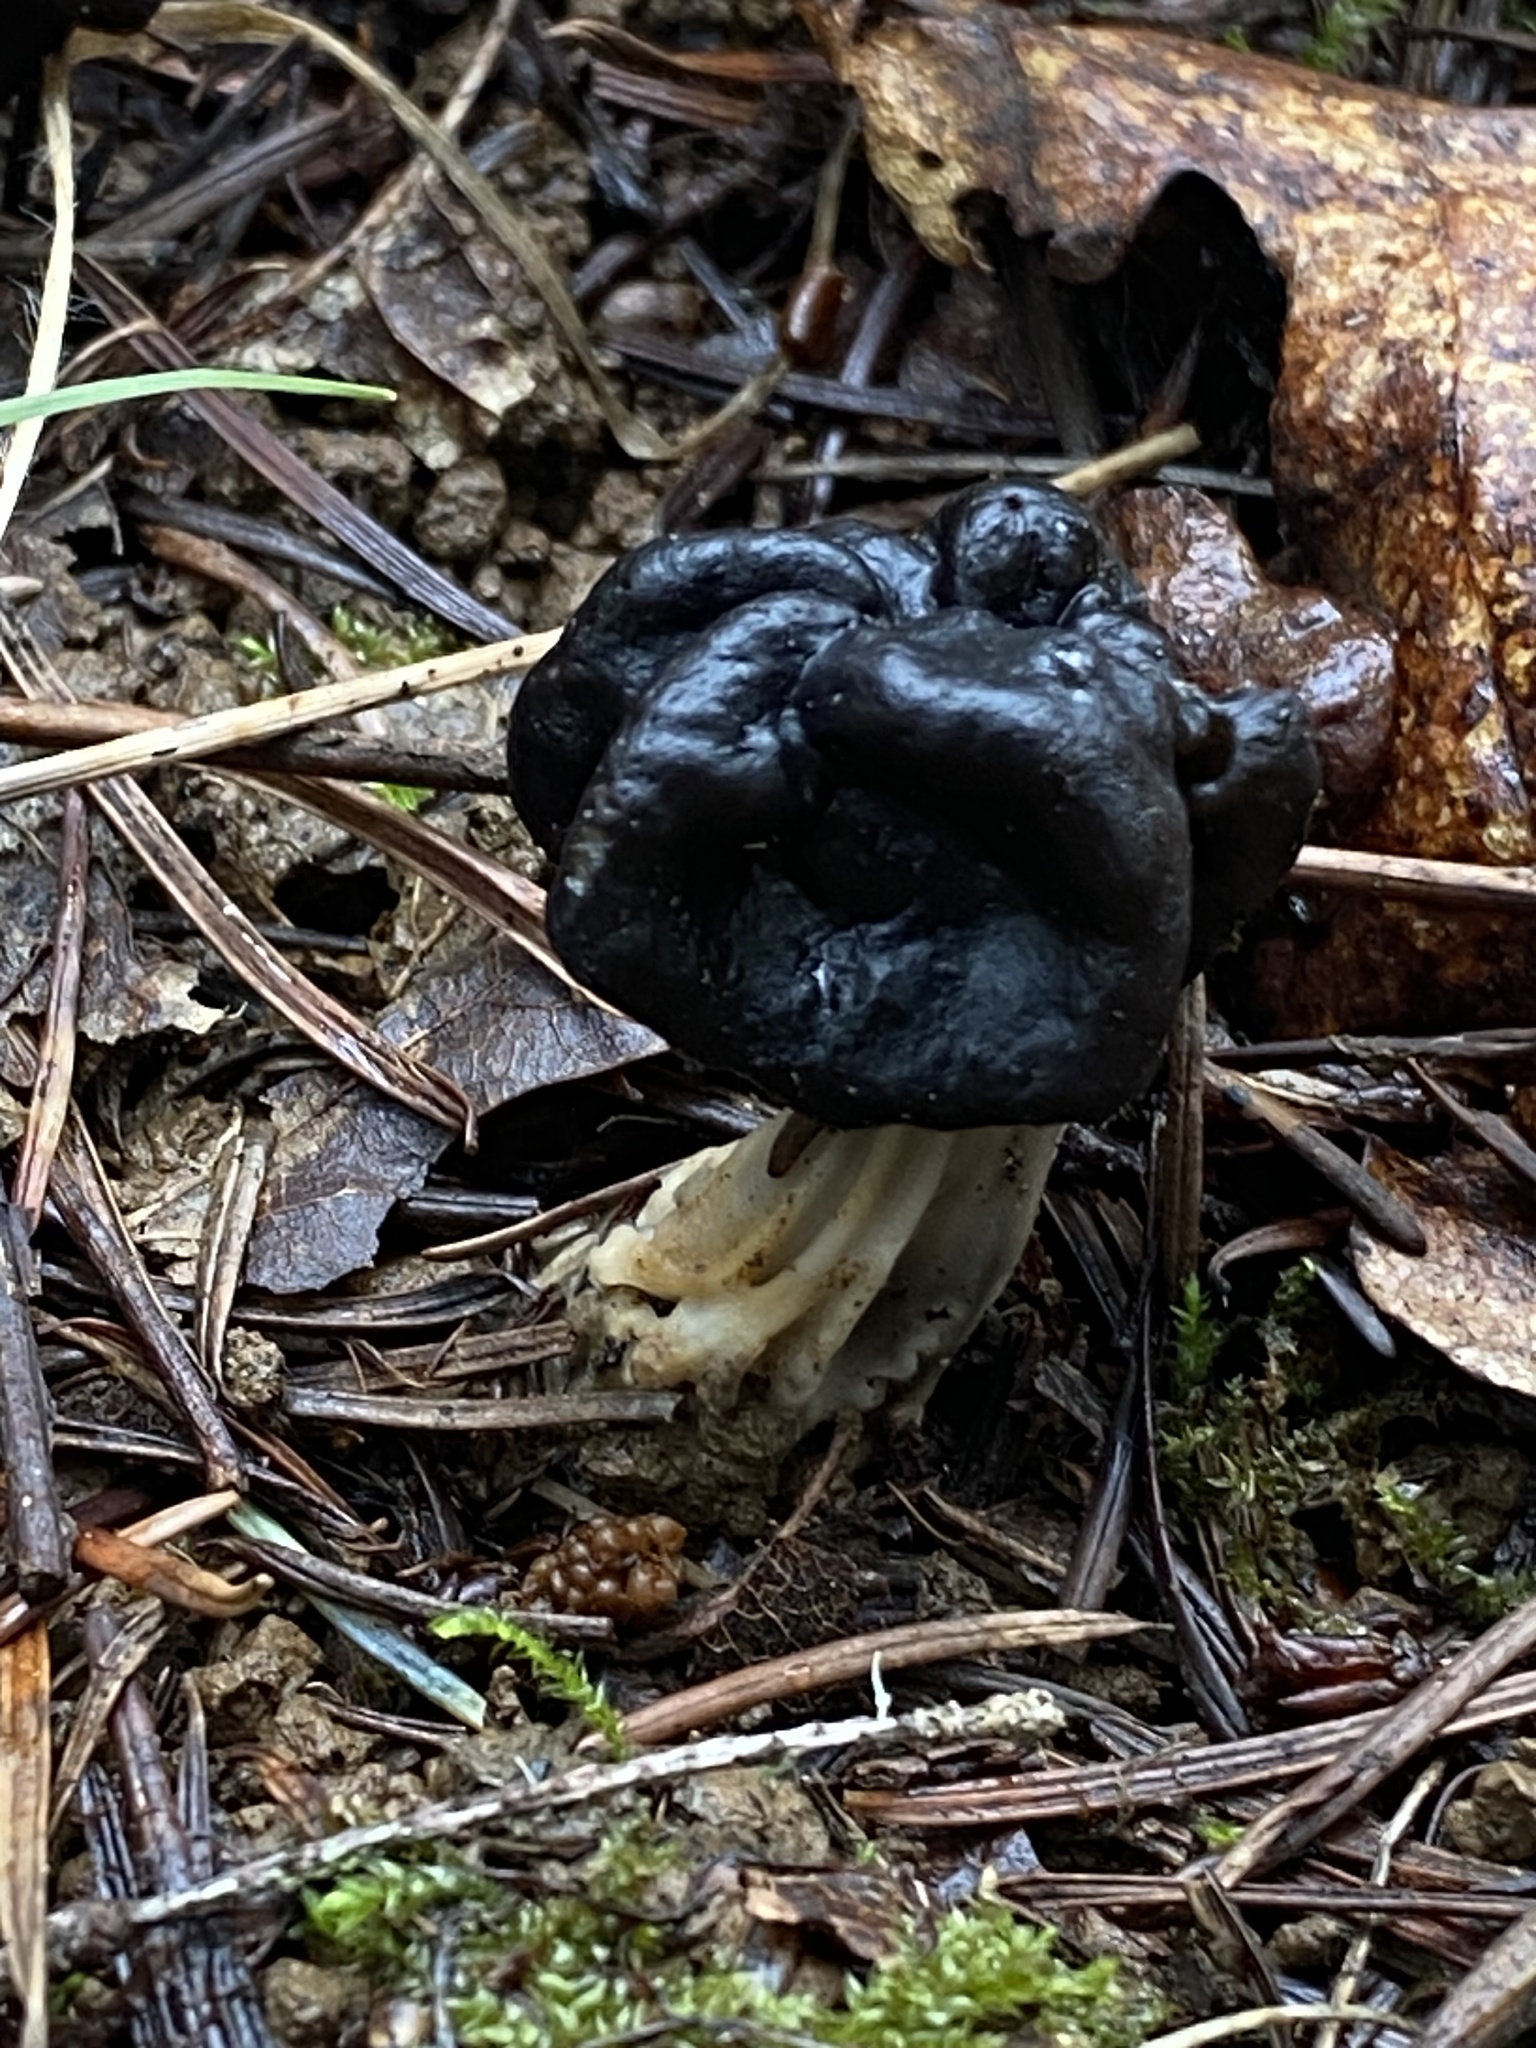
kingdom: Fungi
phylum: Ascomycota
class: Pezizomycetes
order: Pezizales
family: Helvellaceae
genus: Helvella
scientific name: Helvella vespertina
